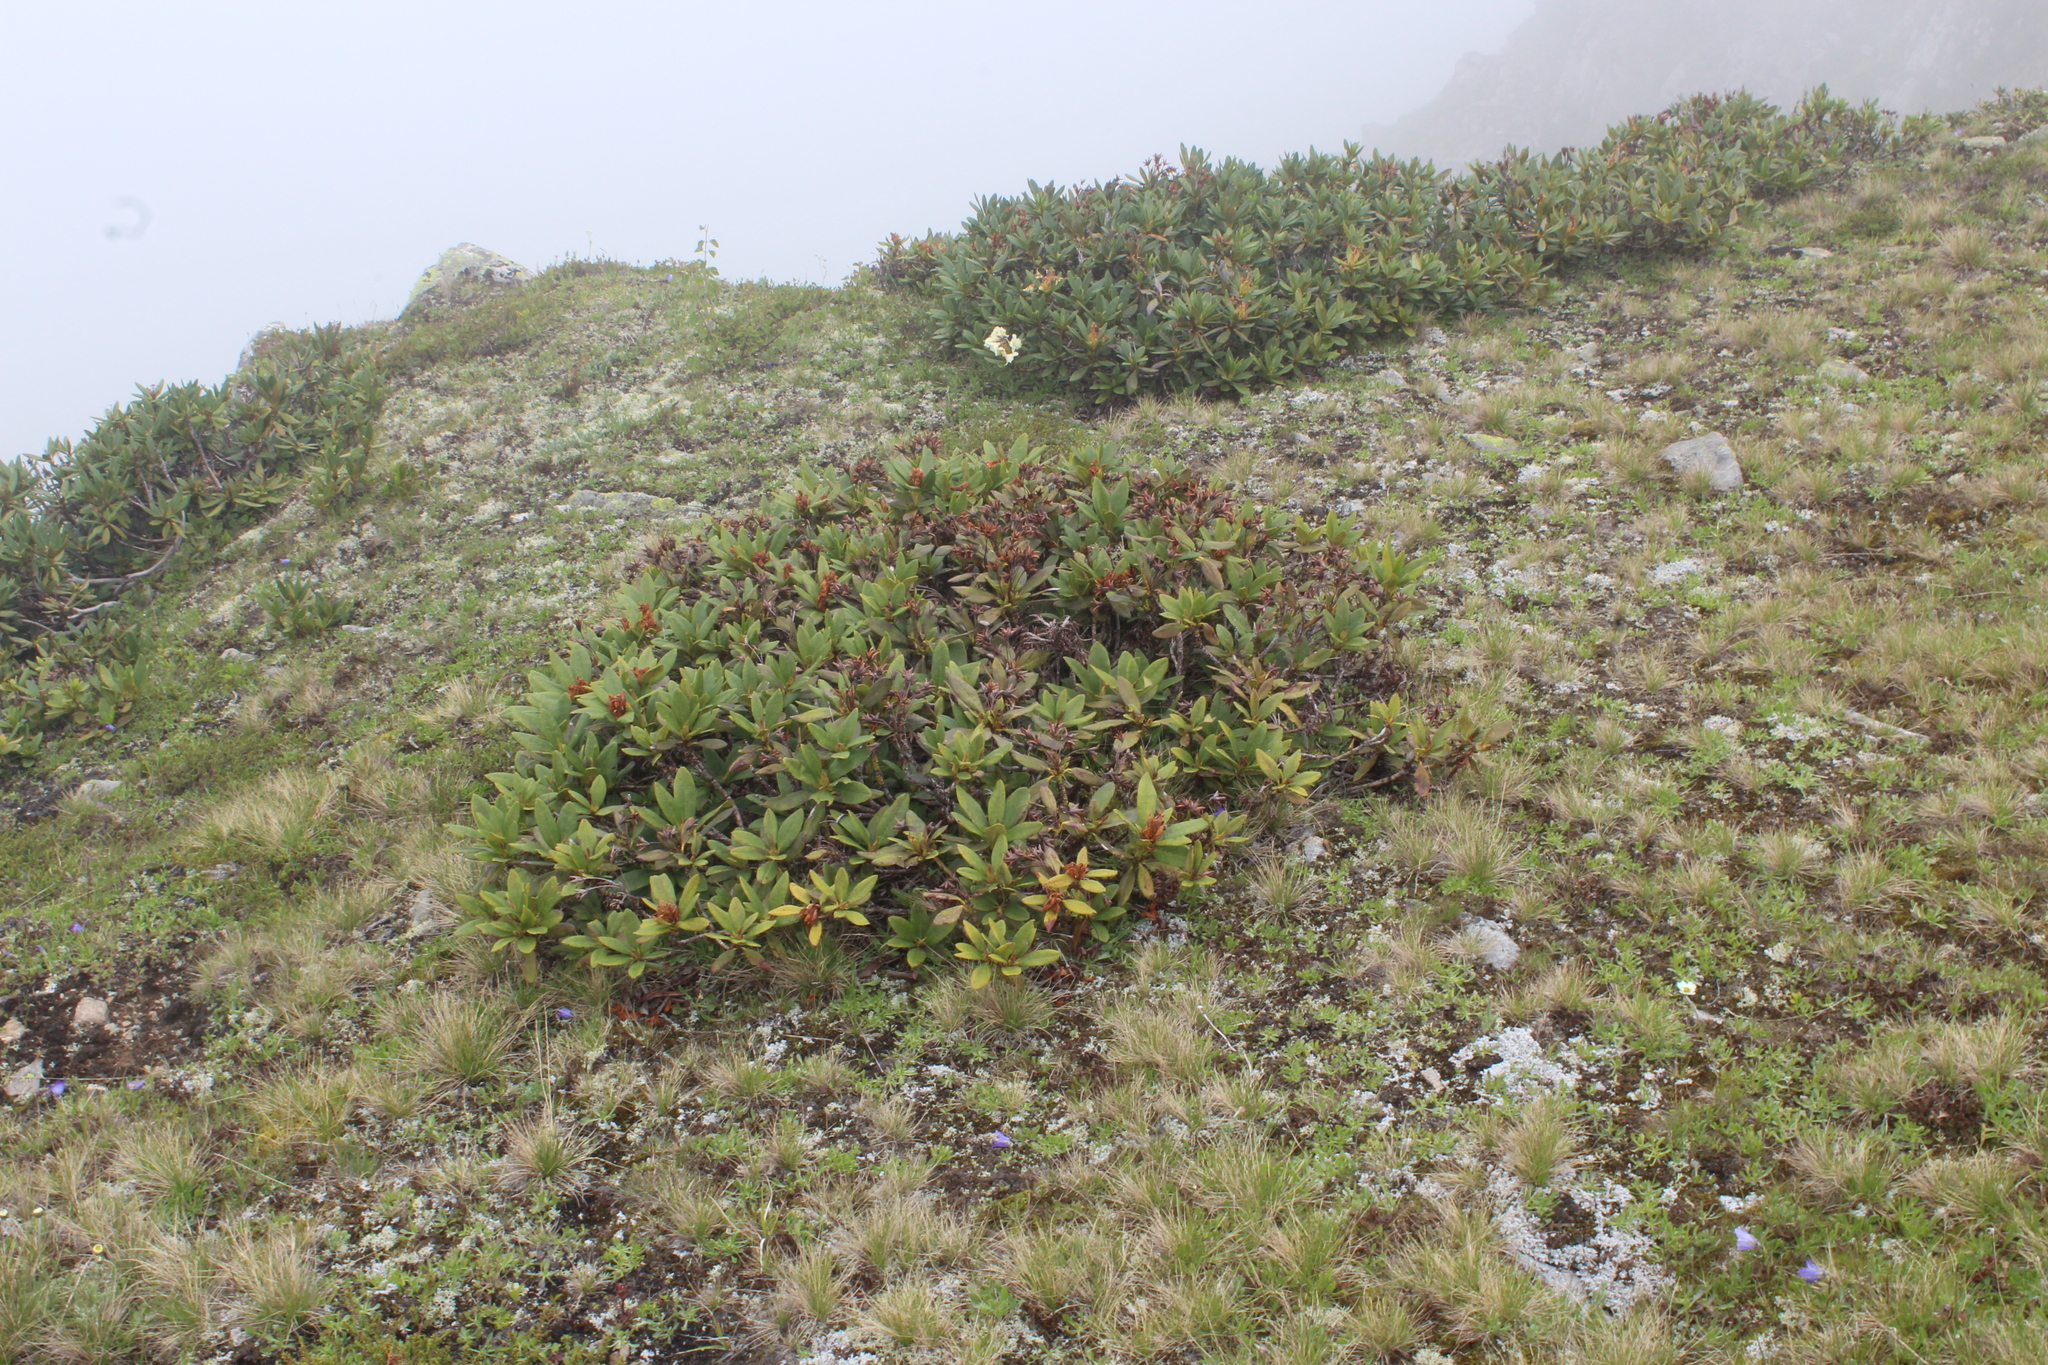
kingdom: Plantae
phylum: Tracheophyta
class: Magnoliopsida
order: Ericales
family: Ericaceae
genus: Rhododendron
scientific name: Rhododendron caucasicum
